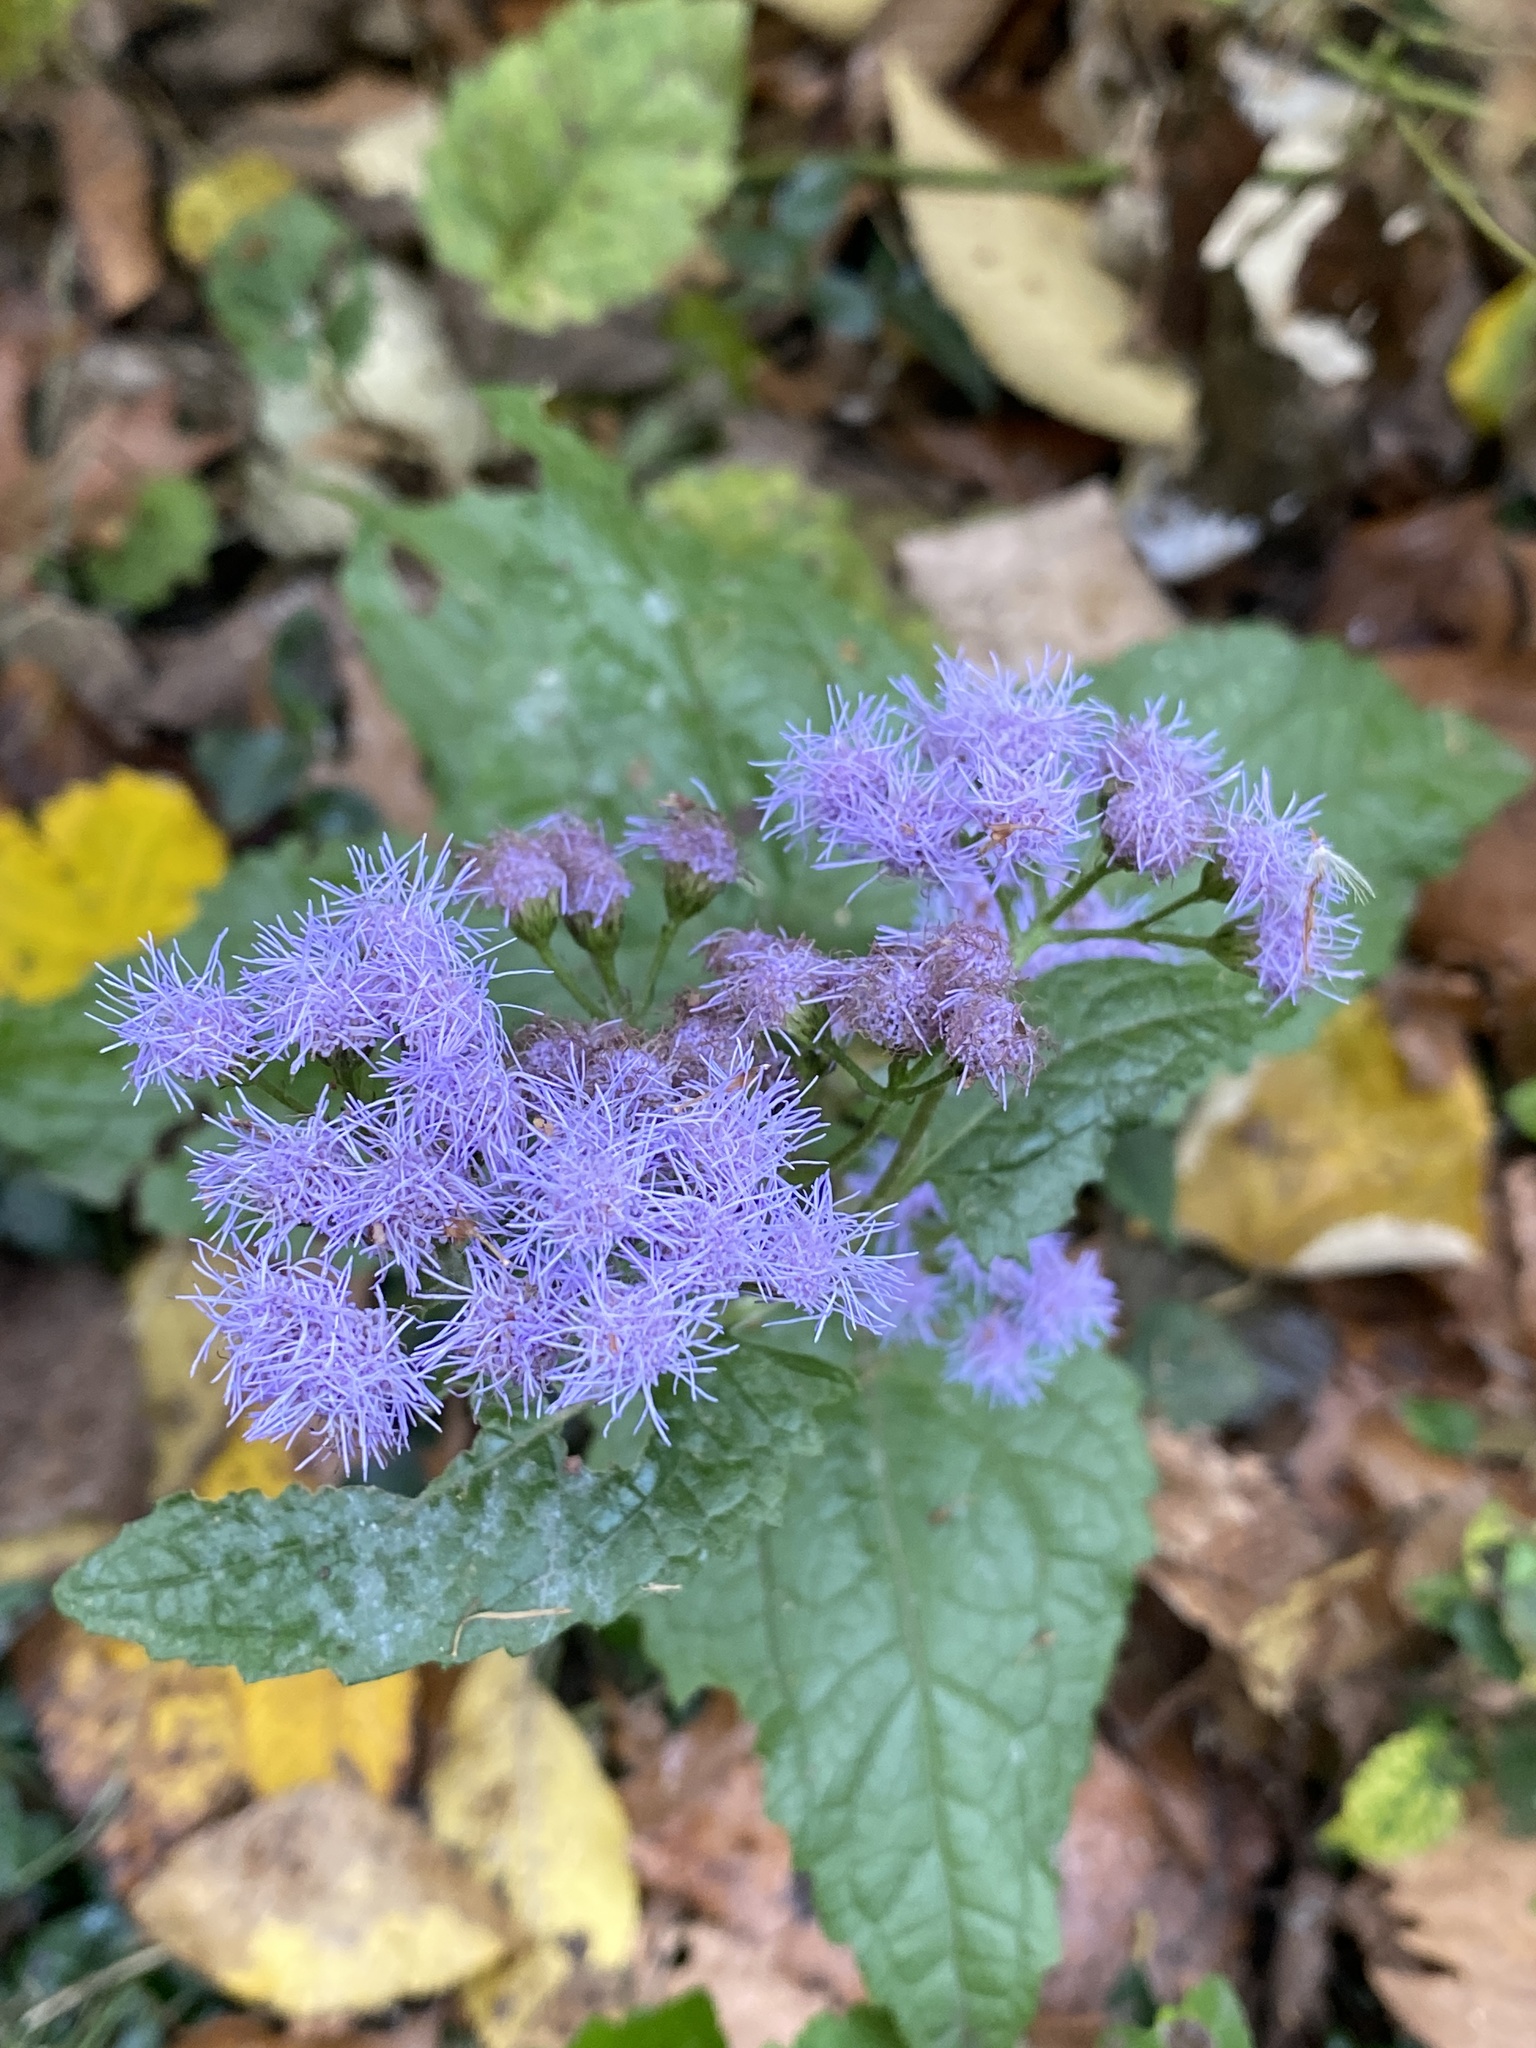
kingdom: Plantae
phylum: Tracheophyta
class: Magnoliopsida
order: Asterales
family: Asteraceae
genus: Conoclinium
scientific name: Conoclinium coelestinum
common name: Blue mistflower
